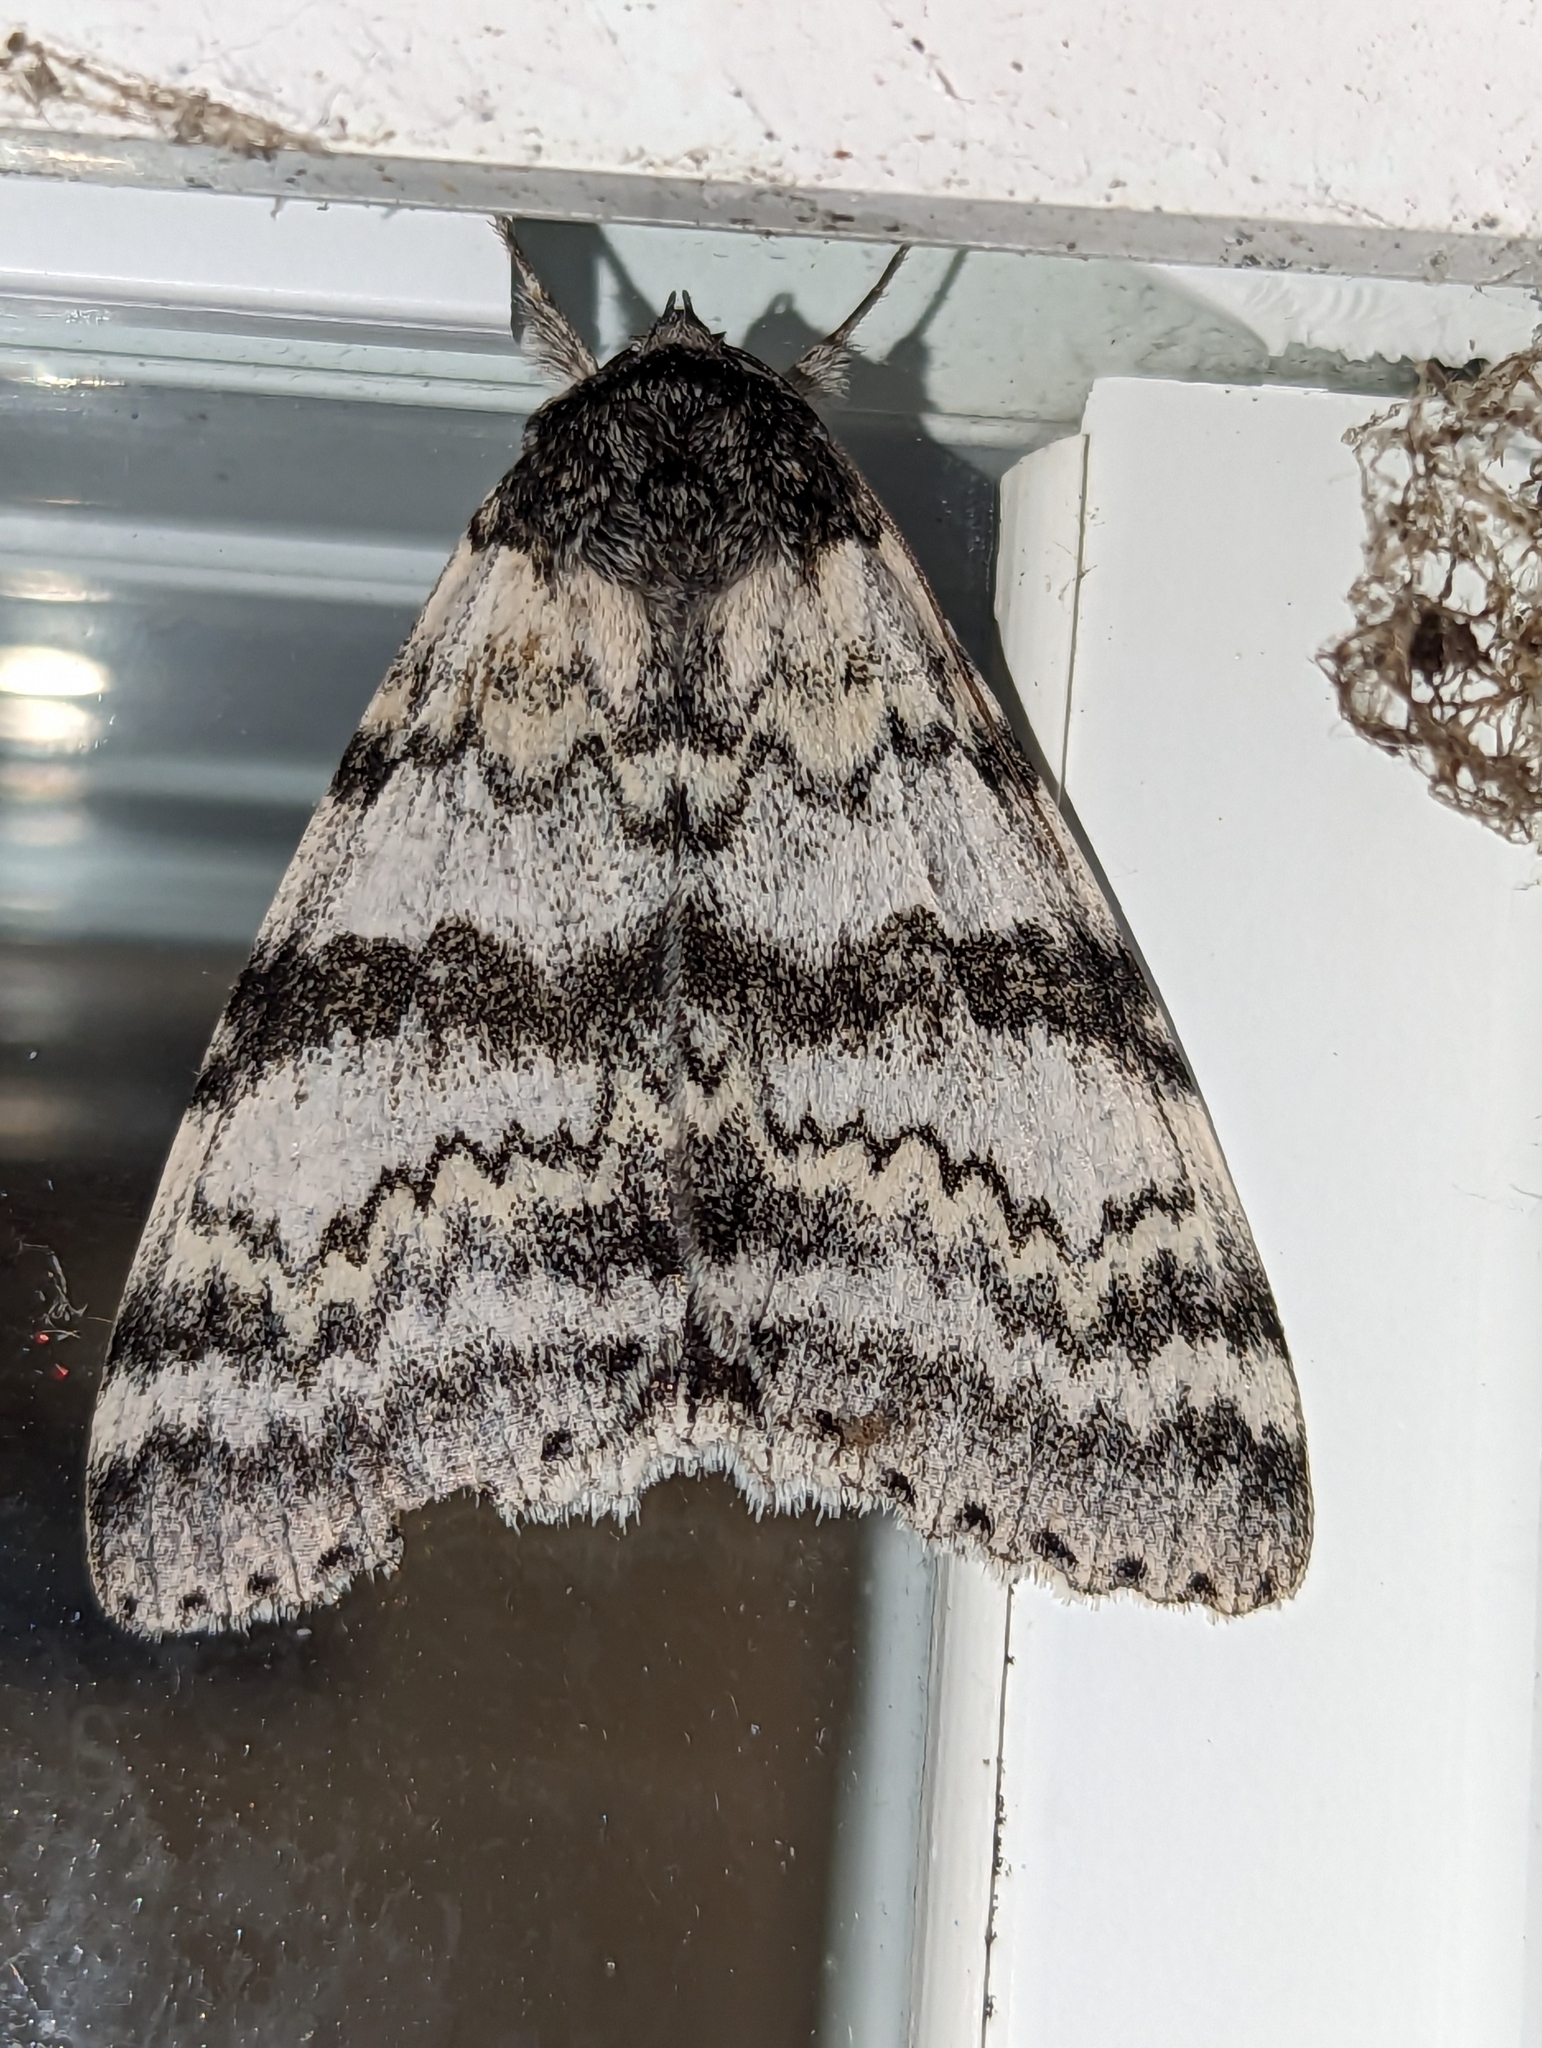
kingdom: Animalia
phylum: Arthropoda
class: Insecta
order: Lepidoptera
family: Erebidae
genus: Catocala
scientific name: Catocala relicta
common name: White underwing
